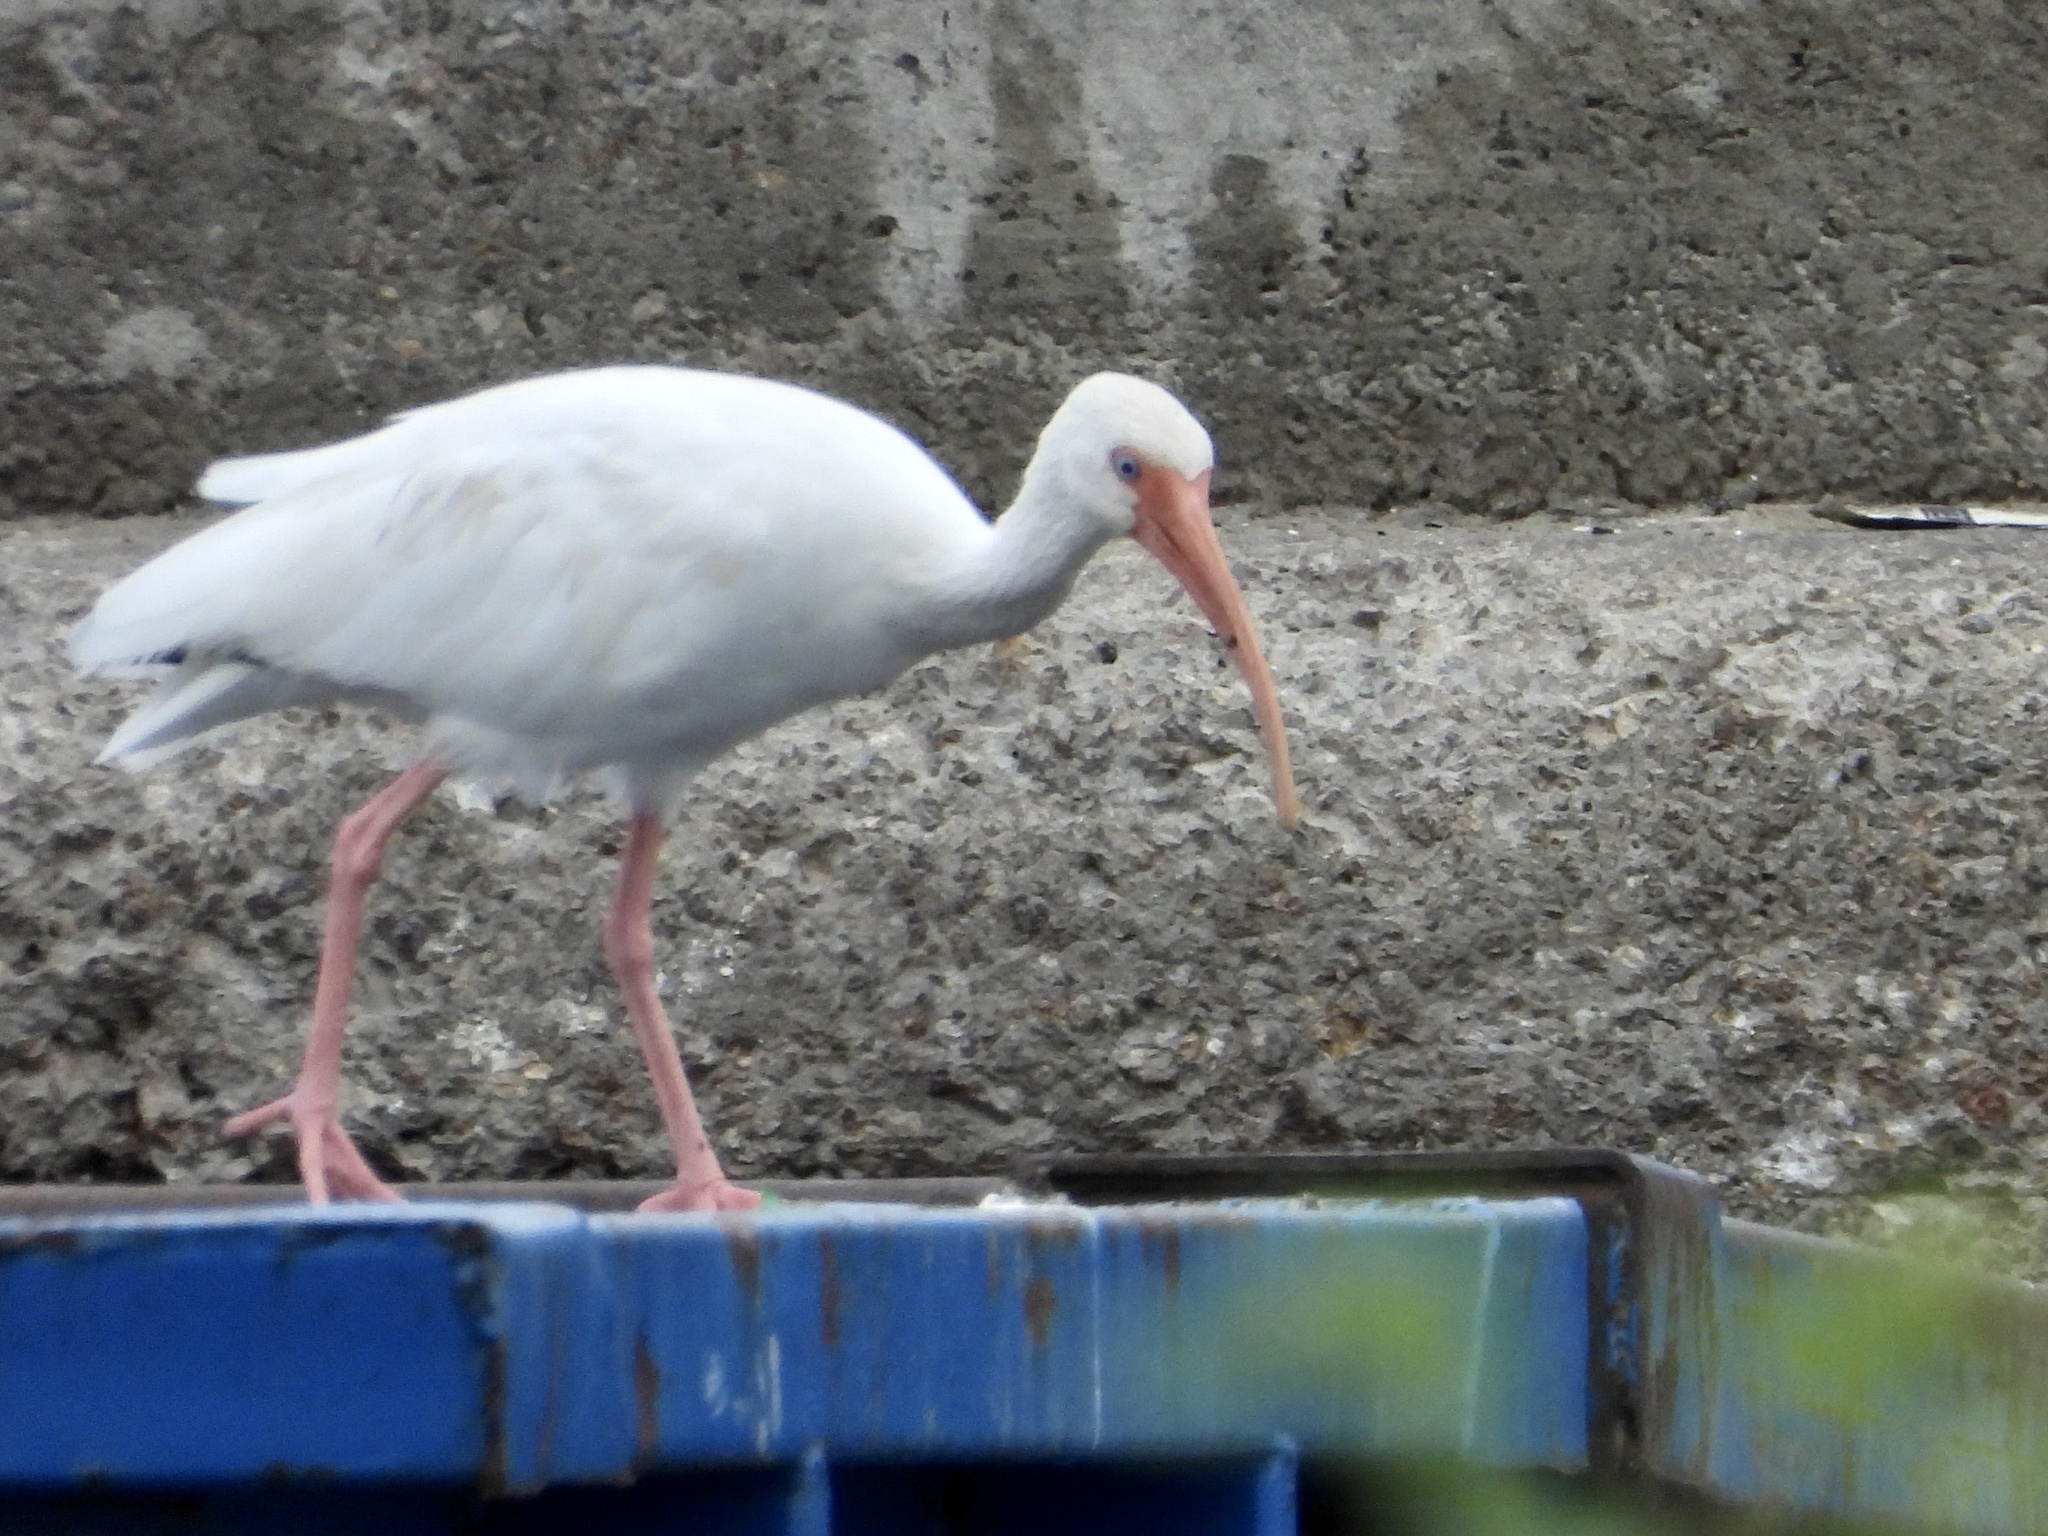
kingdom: Animalia
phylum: Chordata
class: Aves
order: Pelecaniformes
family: Threskiornithidae
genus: Eudocimus
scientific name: Eudocimus albus
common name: White ibis
